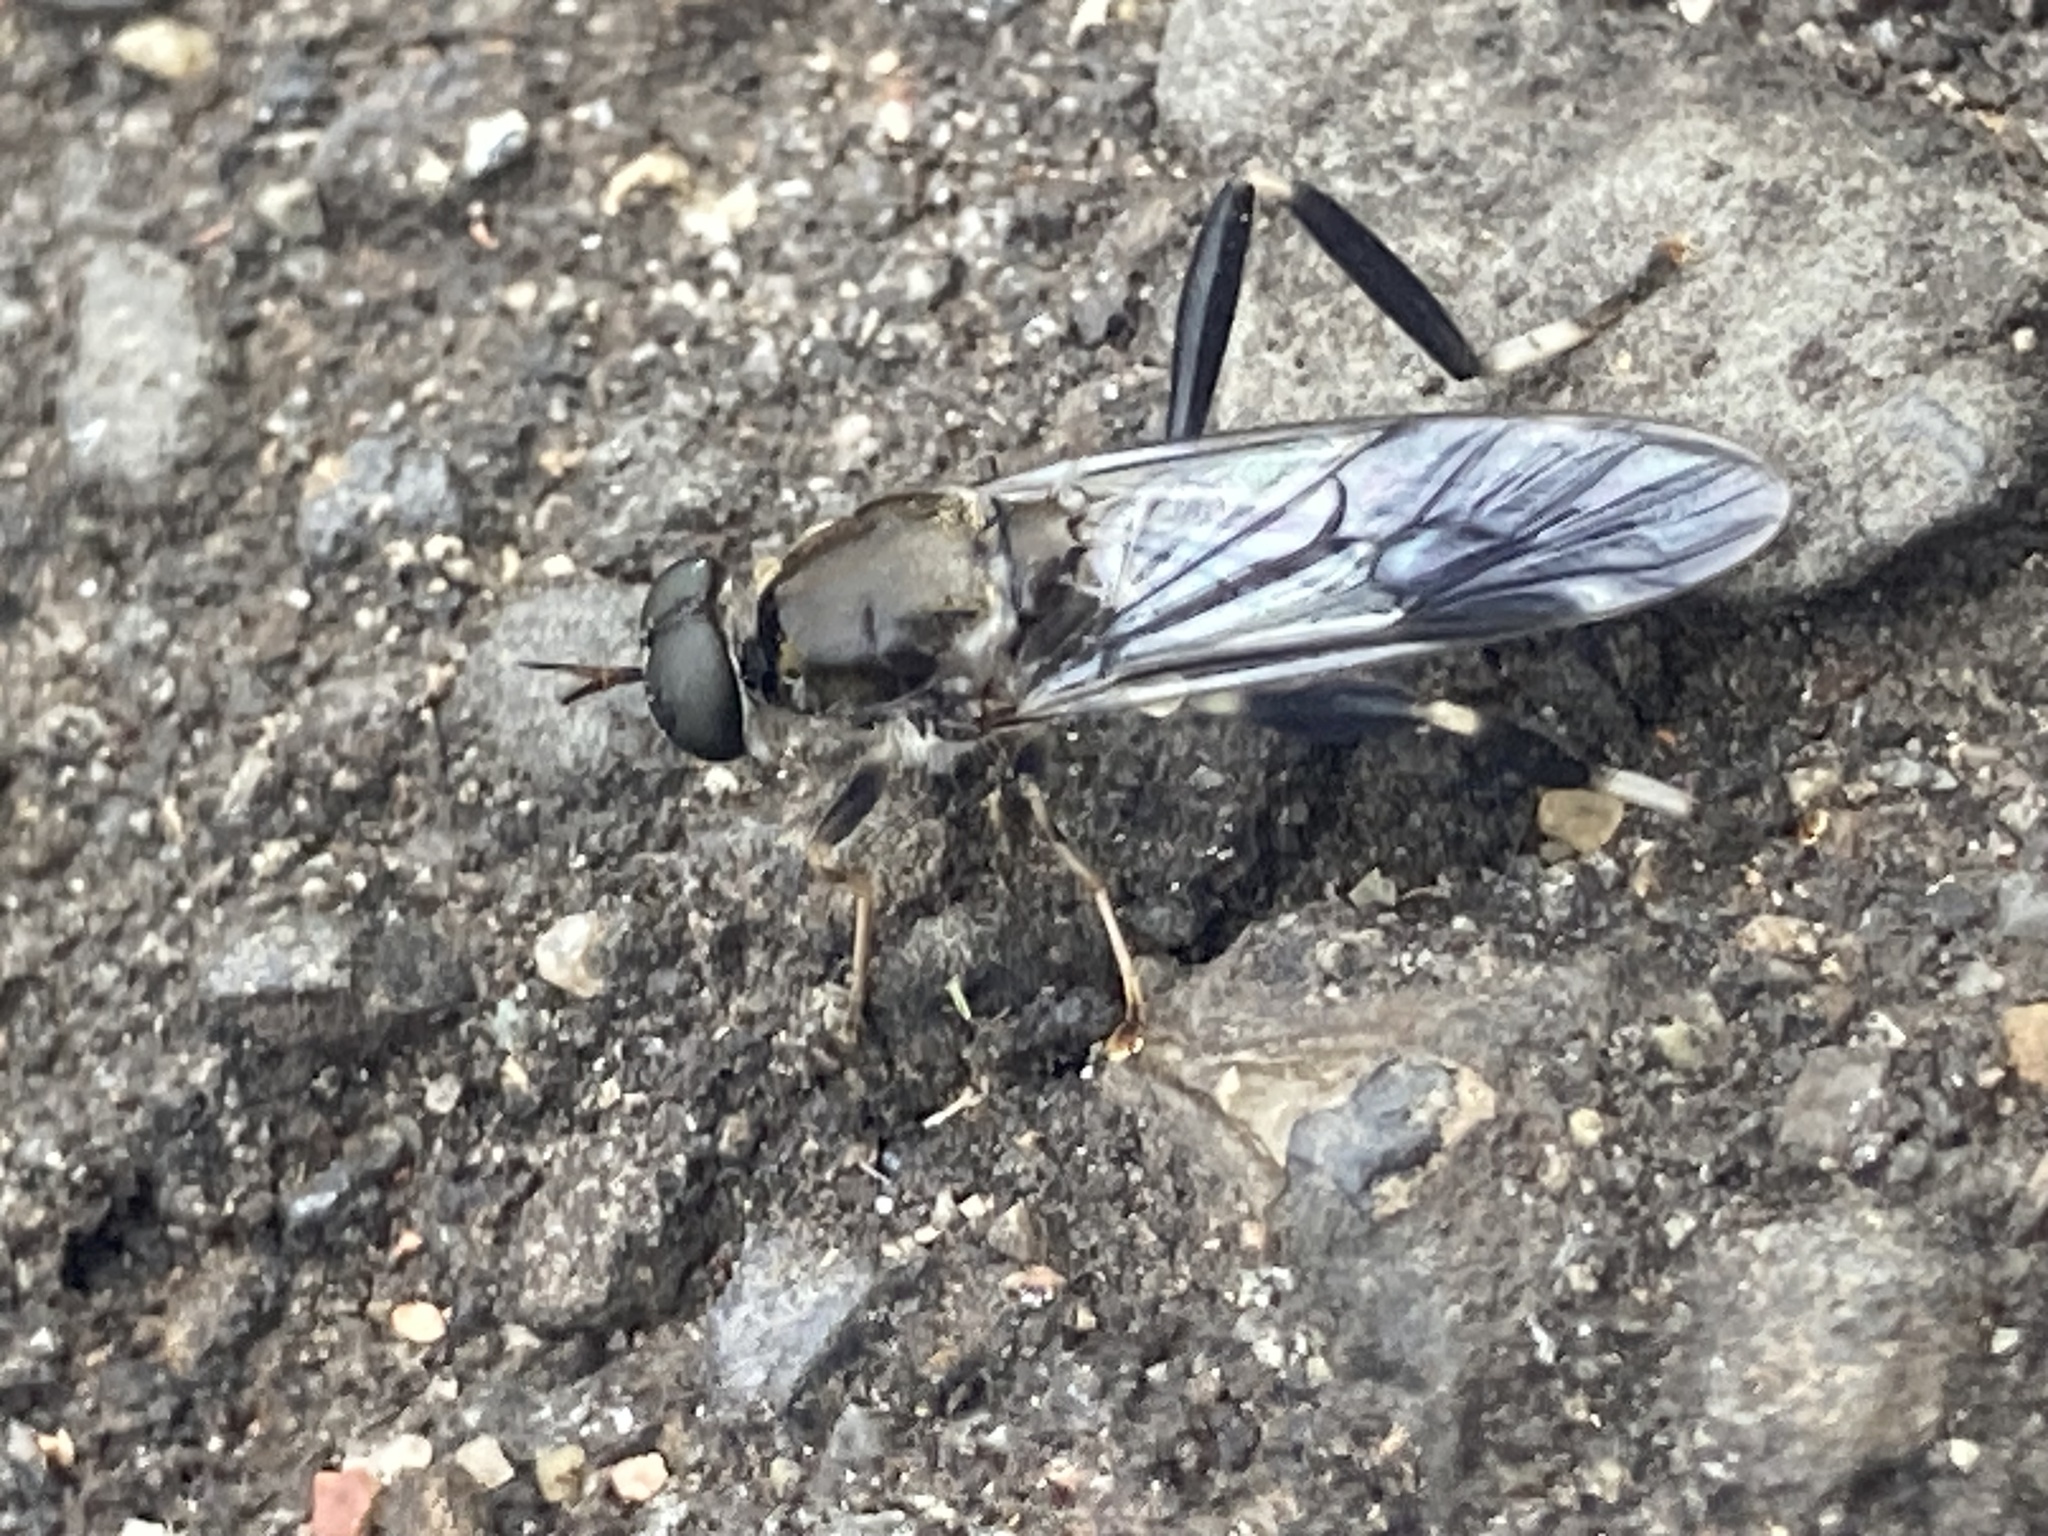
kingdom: Animalia
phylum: Arthropoda
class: Insecta
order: Diptera
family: Stratiomyidae
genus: Exaireta
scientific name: Exaireta spinigera
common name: Blue soldier fly
